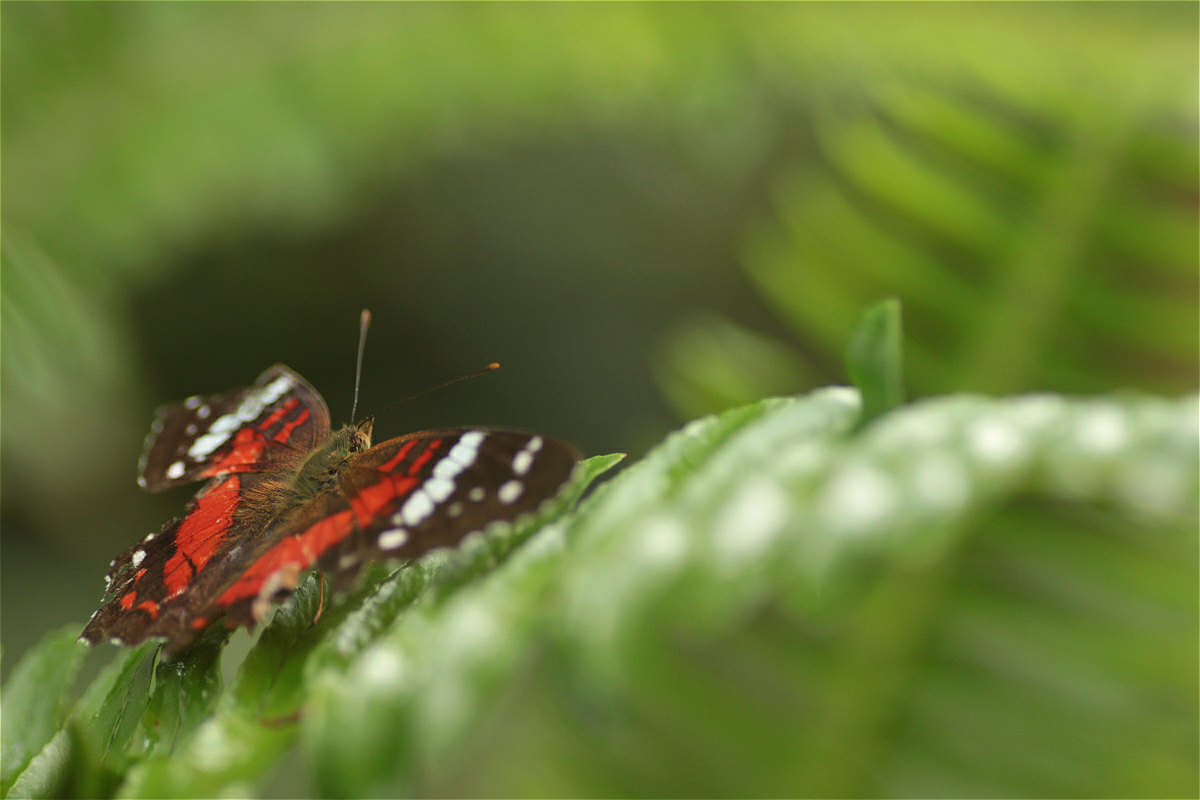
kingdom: Animalia
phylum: Arthropoda
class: Insecta
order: Lepidoptera
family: Nymphalidae
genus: Anartia
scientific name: Anartia amathea
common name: Red peacock
